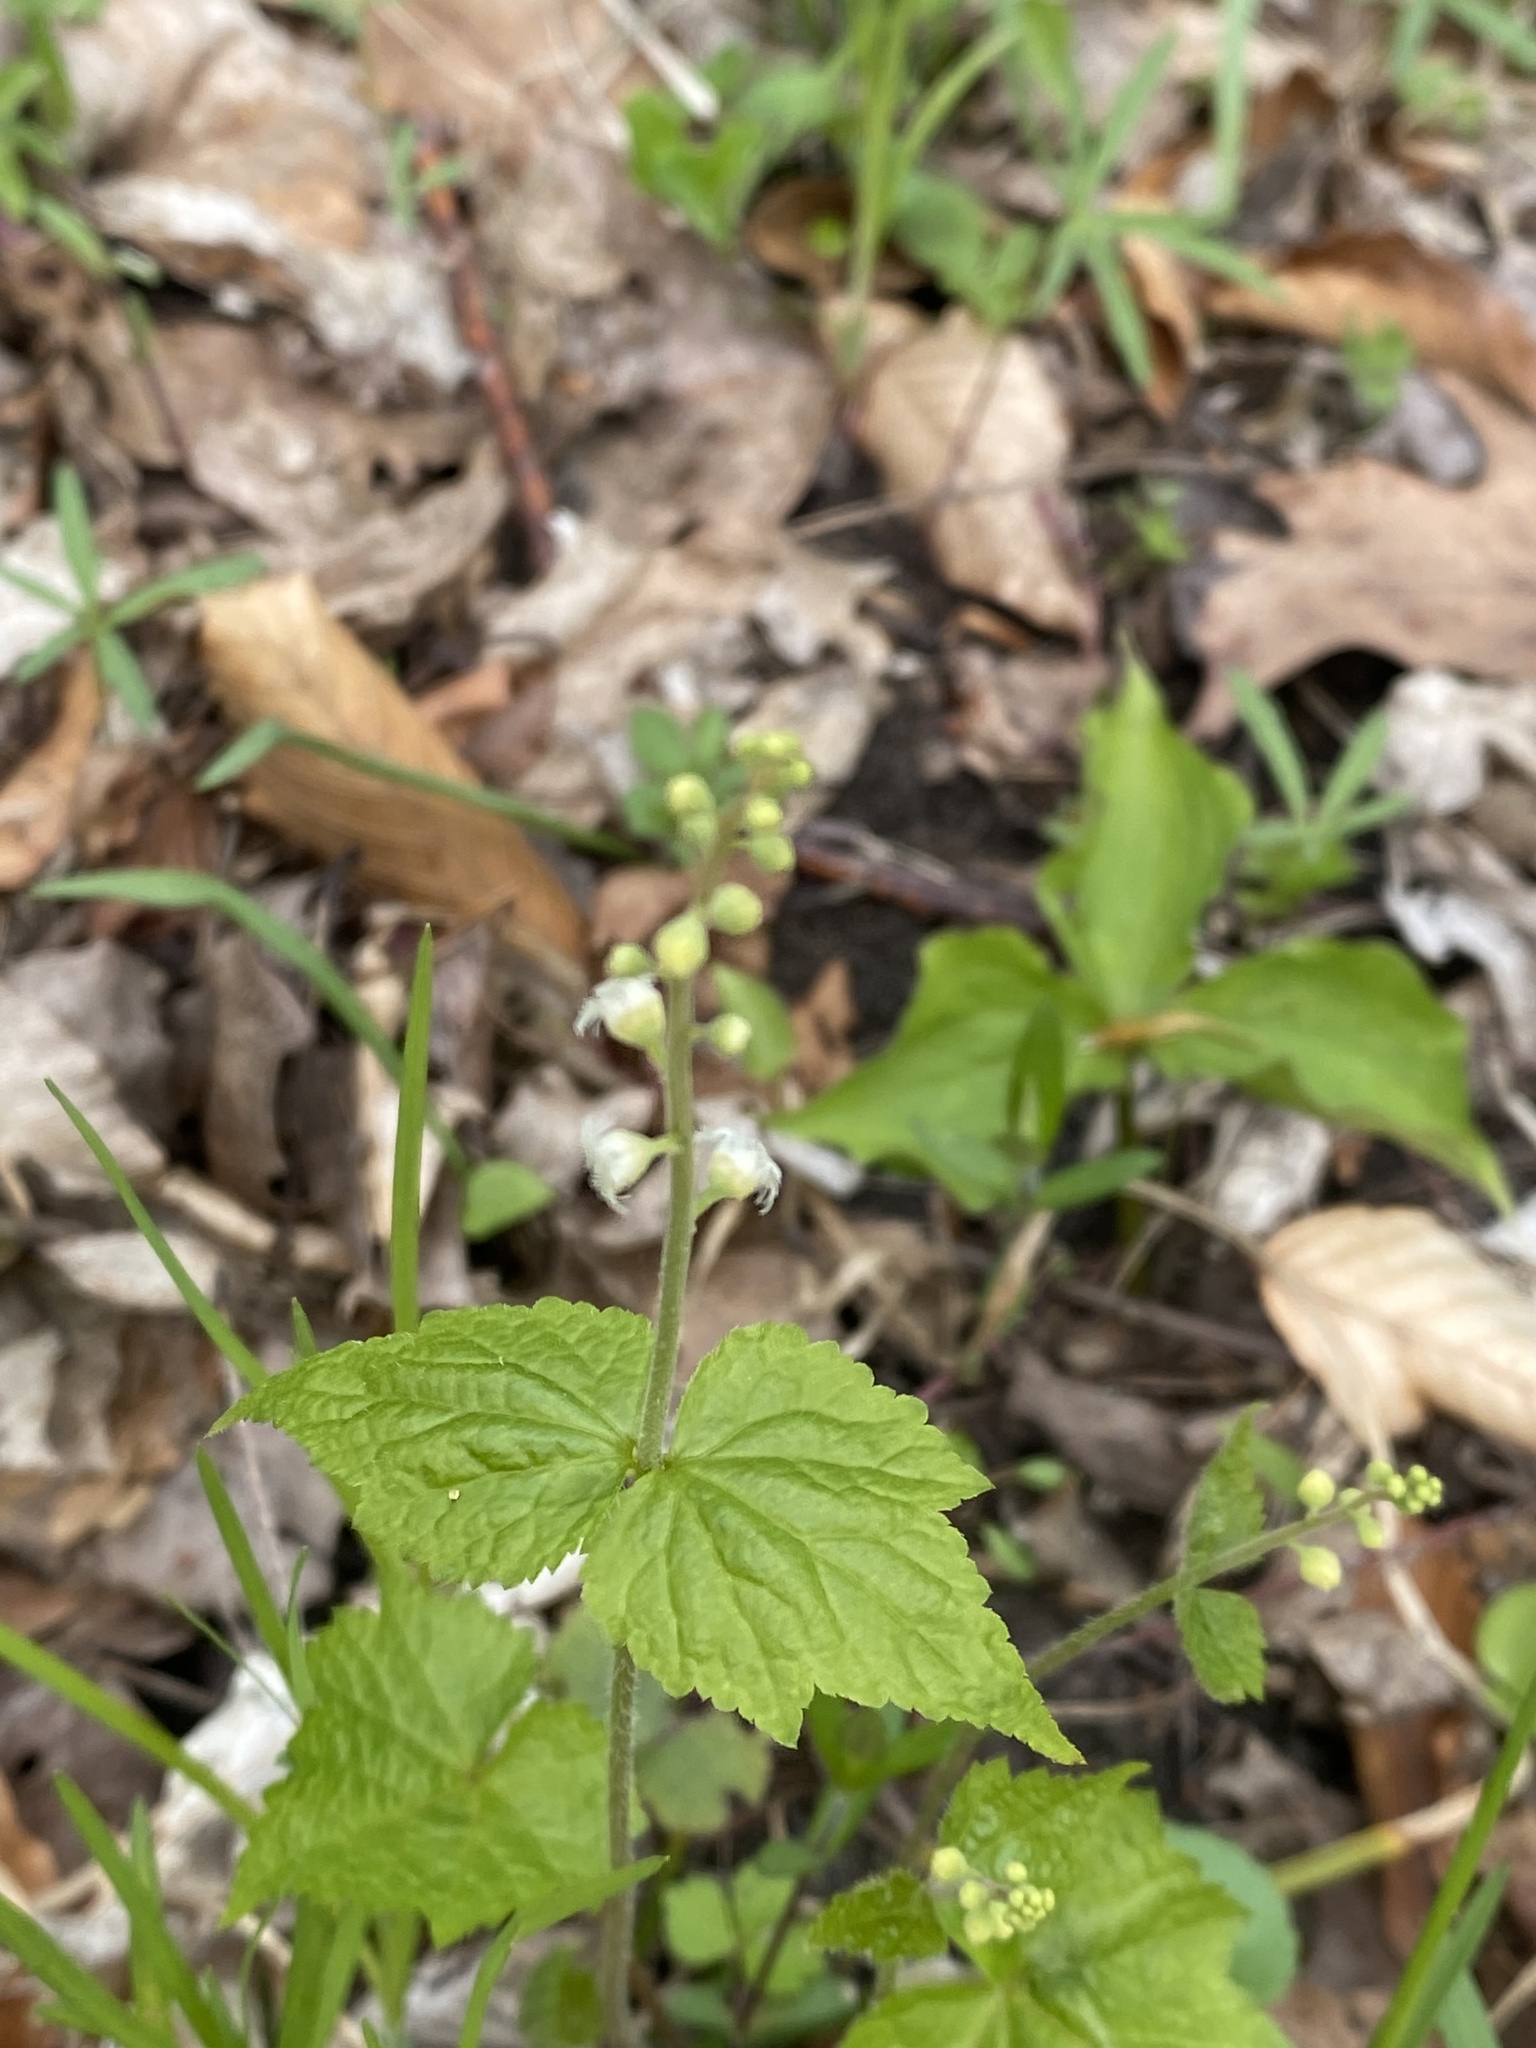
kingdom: Plantae
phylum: Tracheophyta
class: Magnoliopsida
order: Saxifragales
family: Saxifragaceae
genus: Mitella
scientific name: Mitella diphylla
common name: Coolwort
